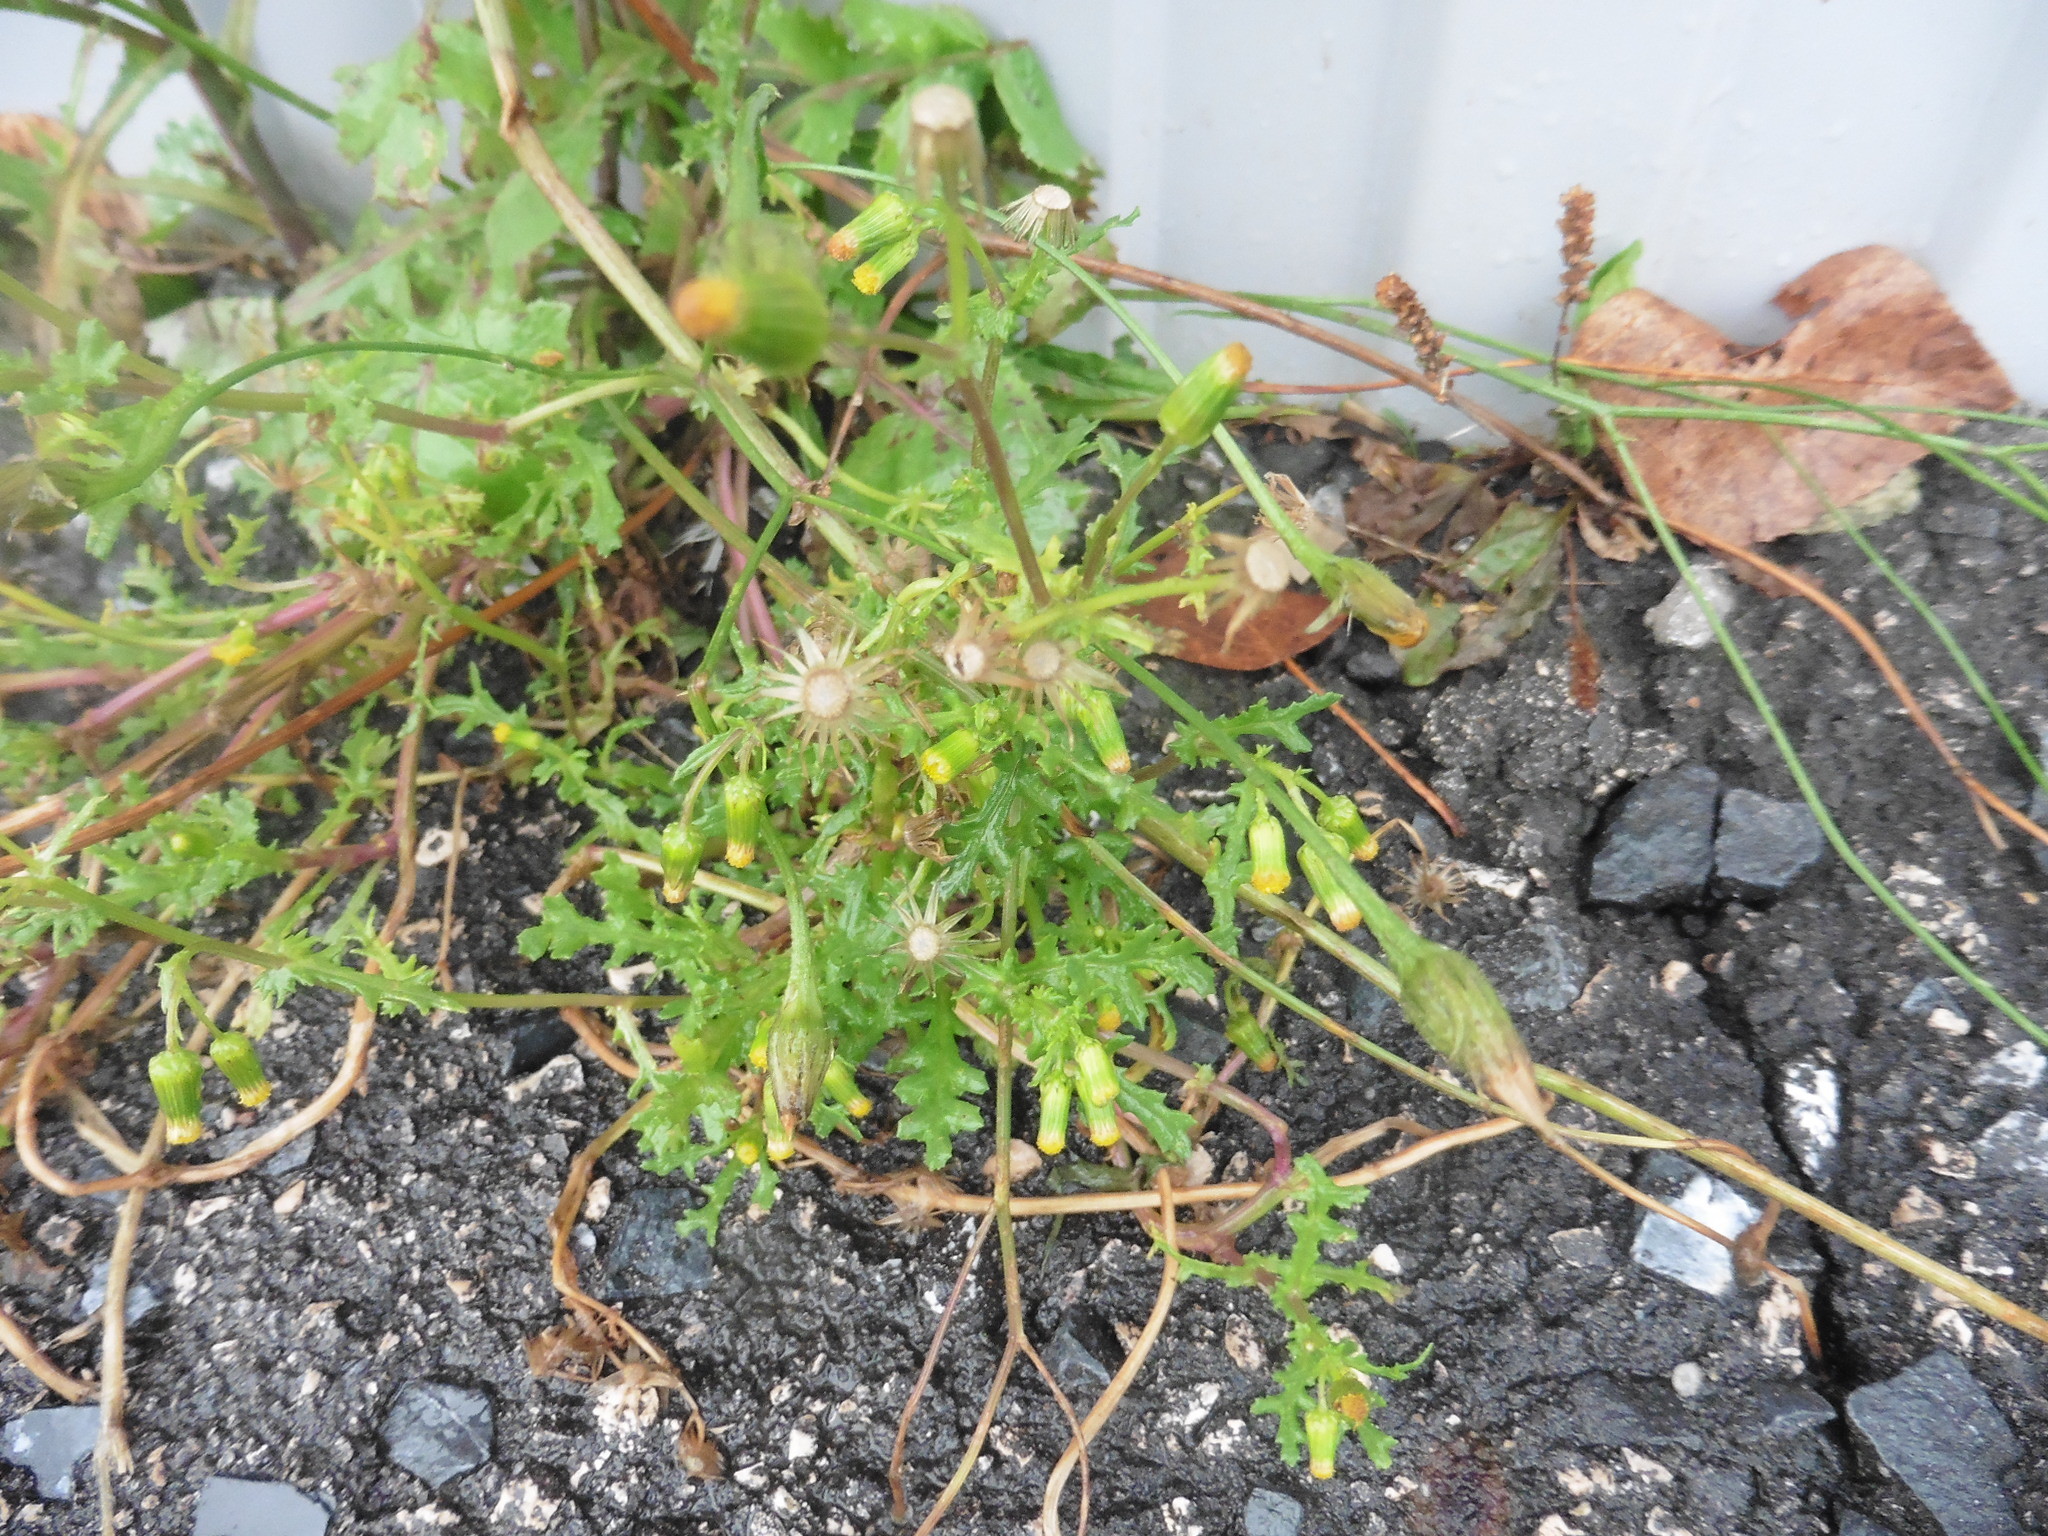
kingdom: Plantae
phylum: Tracheophyta
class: Magnoliopsida
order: Asterales
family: Asteraceae
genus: Senecio
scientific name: Senecio vulgaris
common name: Old-man-in-the-spring
